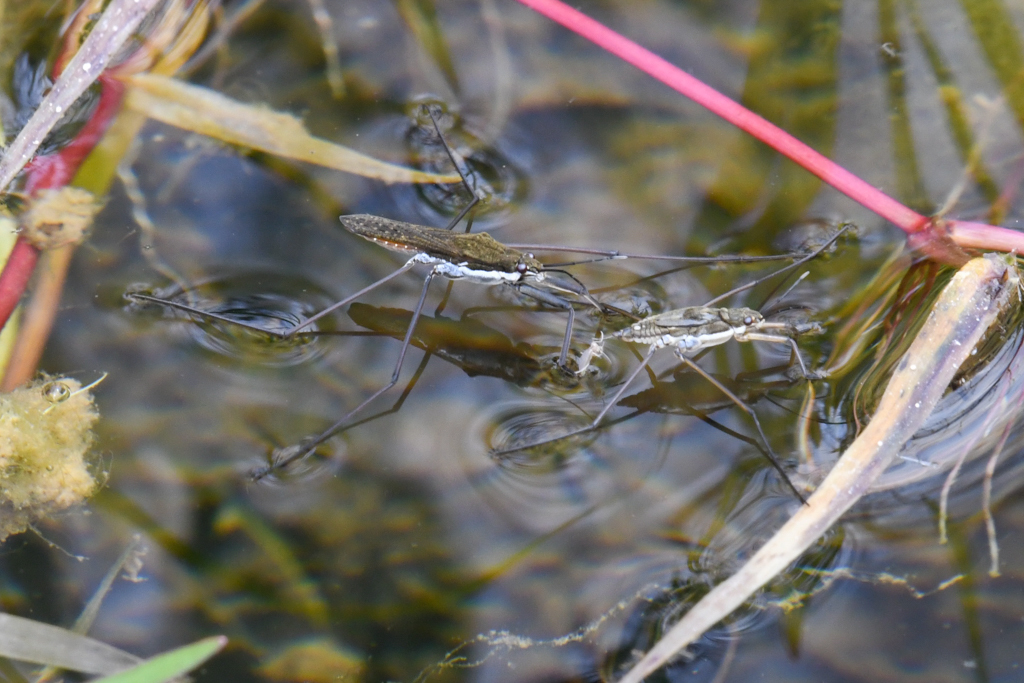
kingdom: Animalia
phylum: Arthropoda
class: Insecta
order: Hemiptera
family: Gerridae
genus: Aquarius
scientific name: Aquarius remigis
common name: Common water strider
